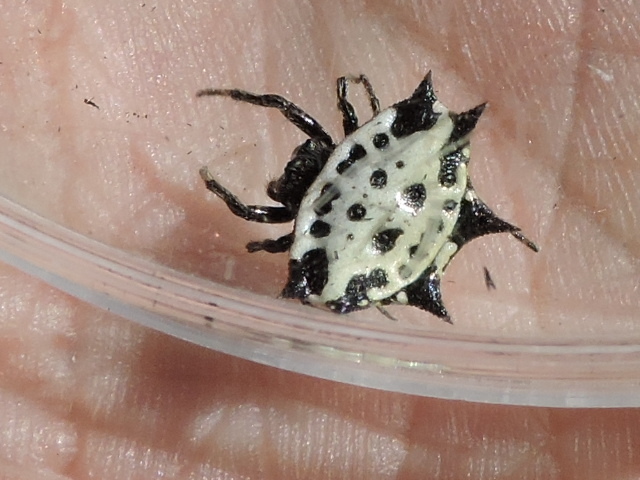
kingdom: Animalia
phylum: Arthropoda
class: Arachnida
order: Araneae
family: Araneidae
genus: Gasteracantha
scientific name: Gasteracantha cancriformis
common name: Orb weavers
